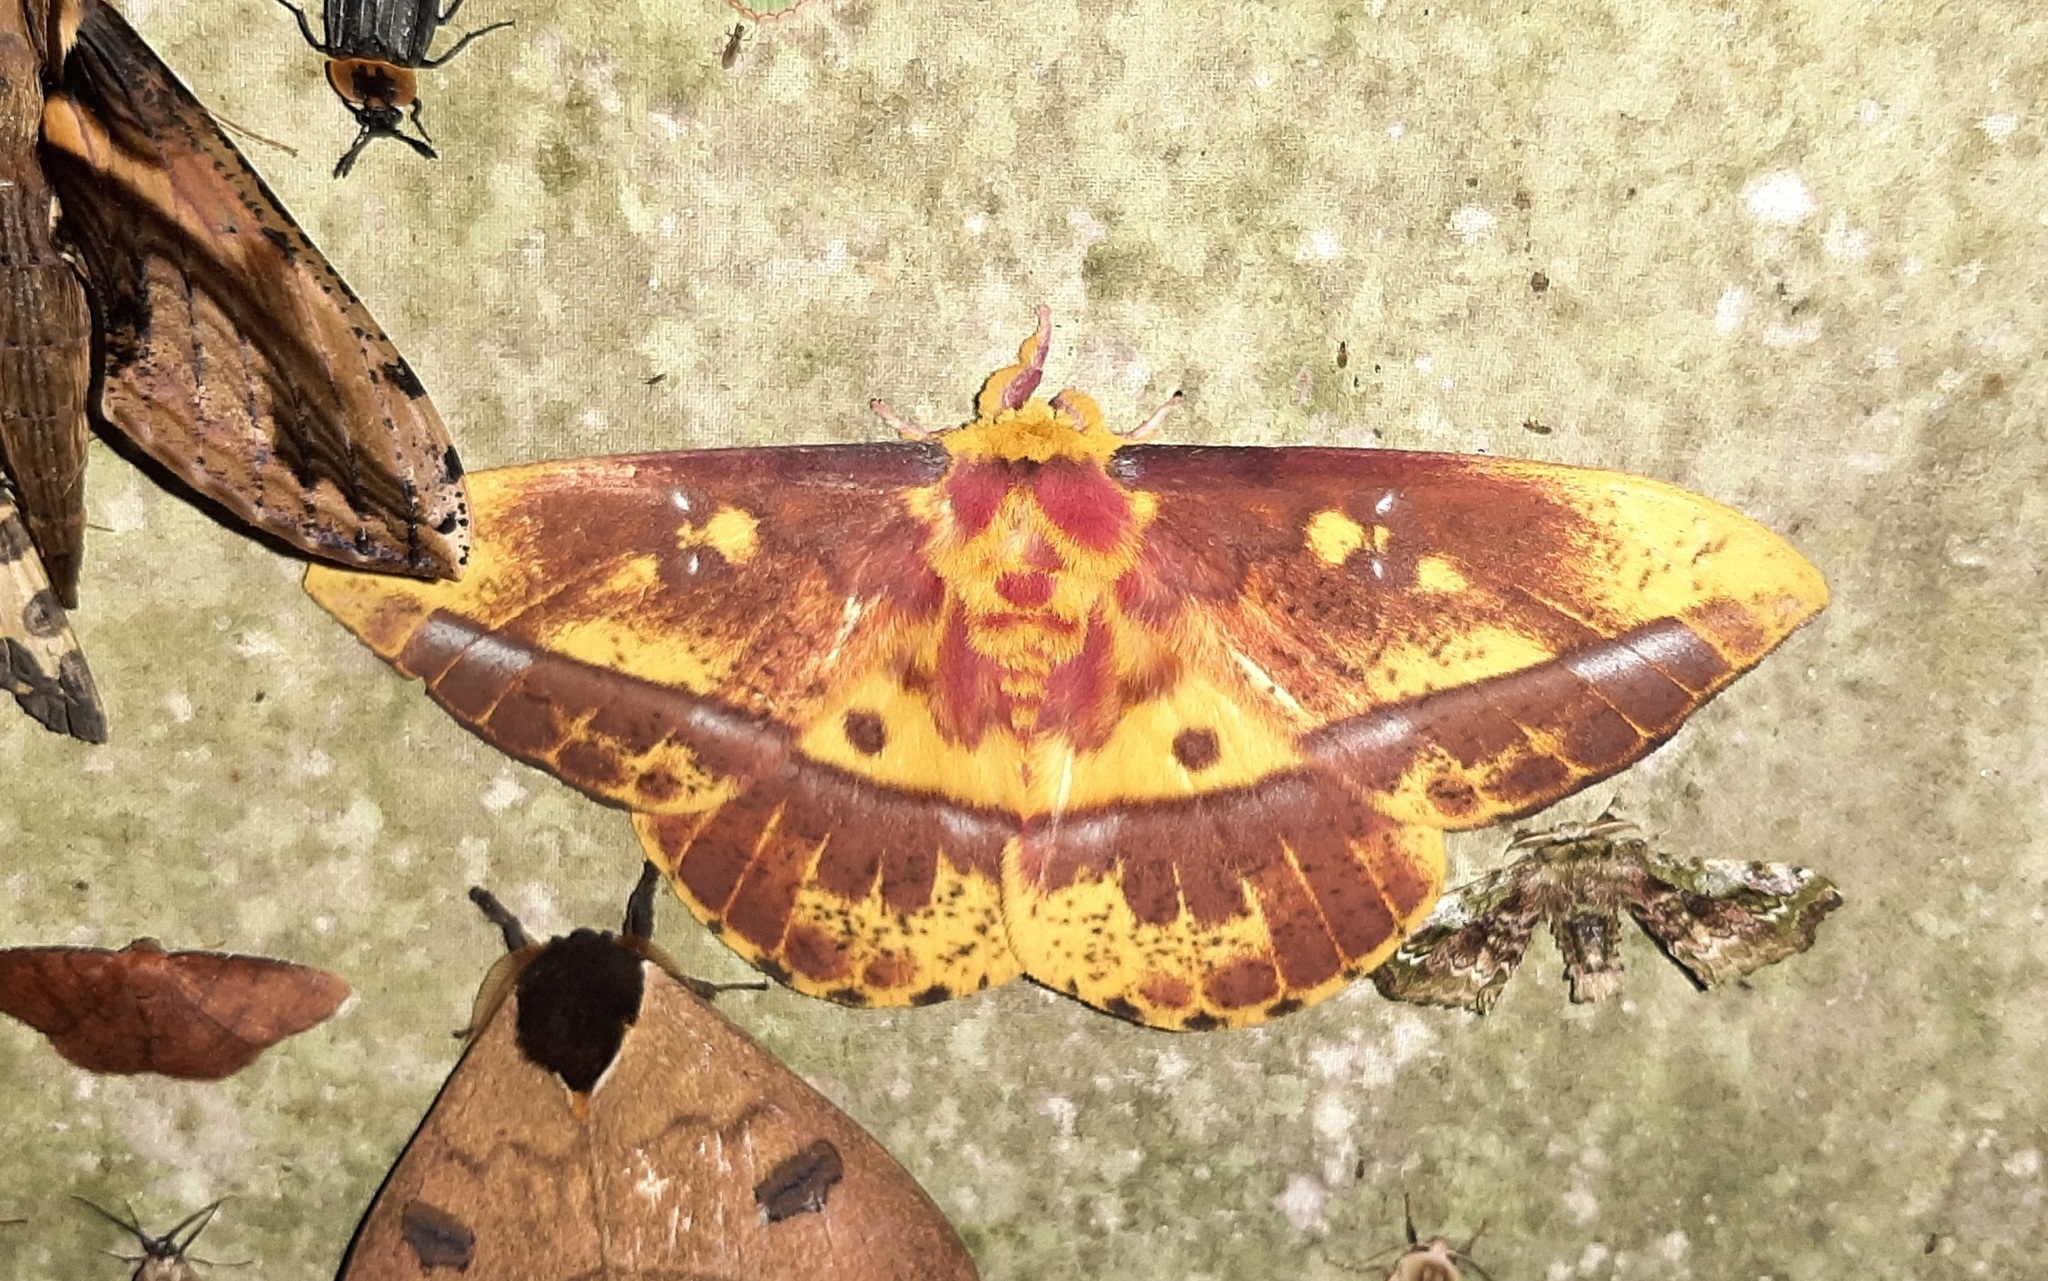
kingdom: Animalia
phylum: Arthropoda
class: Insecta
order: Lepidoptera
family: Saturniidae
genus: Bathyphlebia
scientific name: Bathyphlebia eminens
